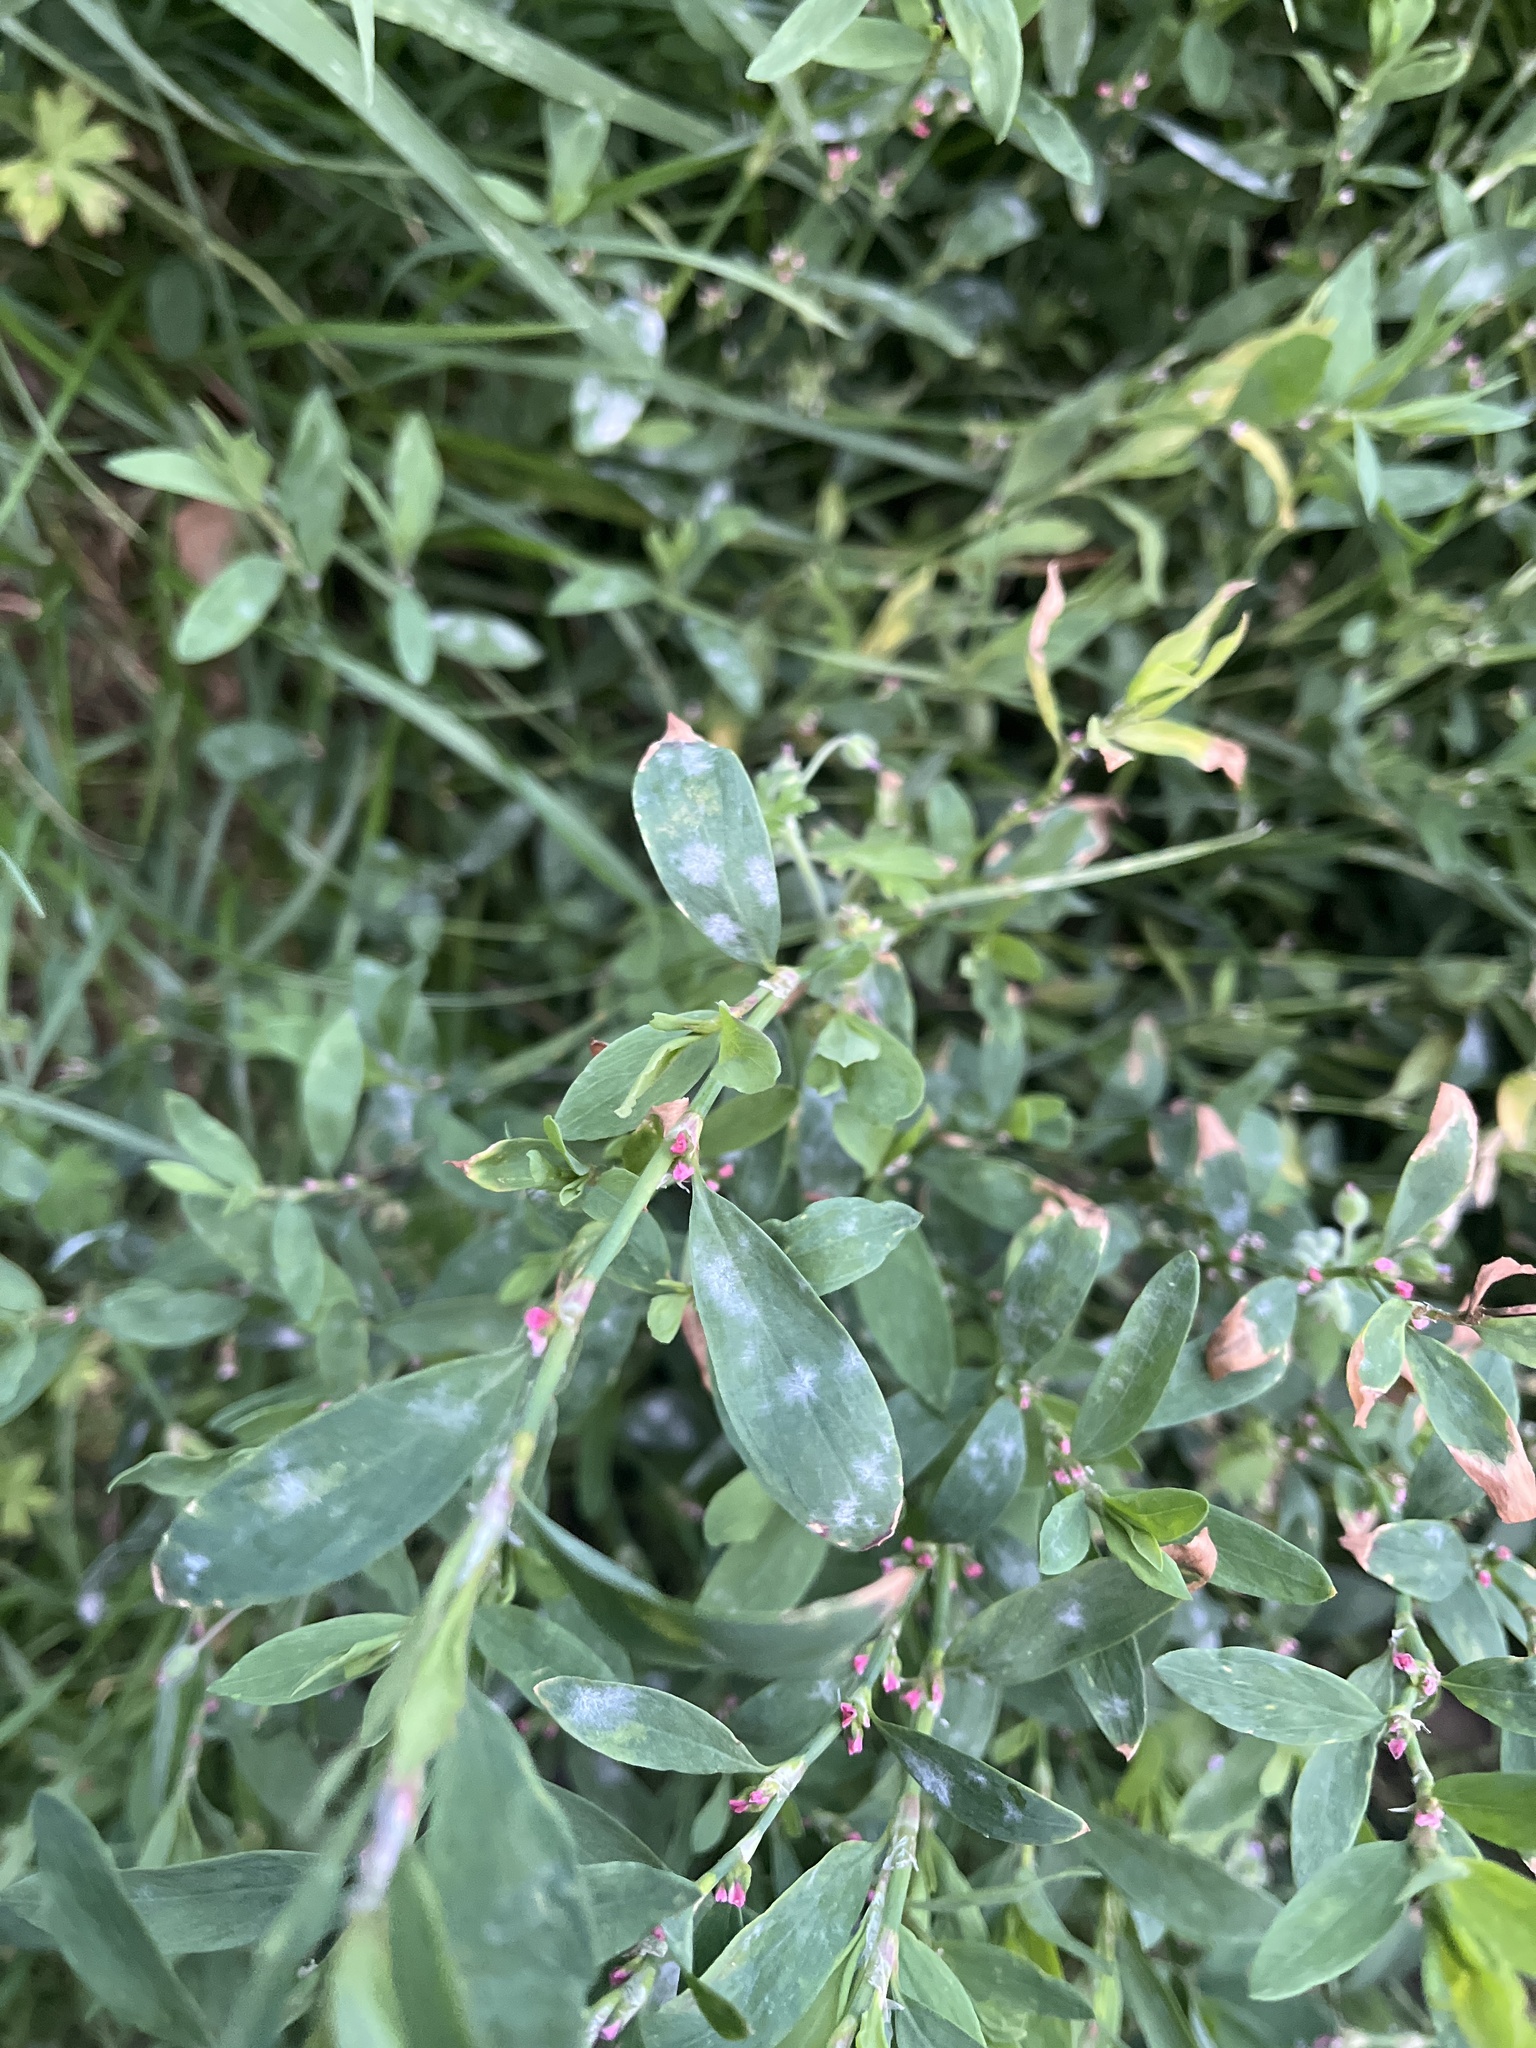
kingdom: Fungi
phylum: Ascomycota
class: Leotiomycetes
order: Helotiales
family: Erysiphaceae
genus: Erysiphe
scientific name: Erysiphe polygoni
